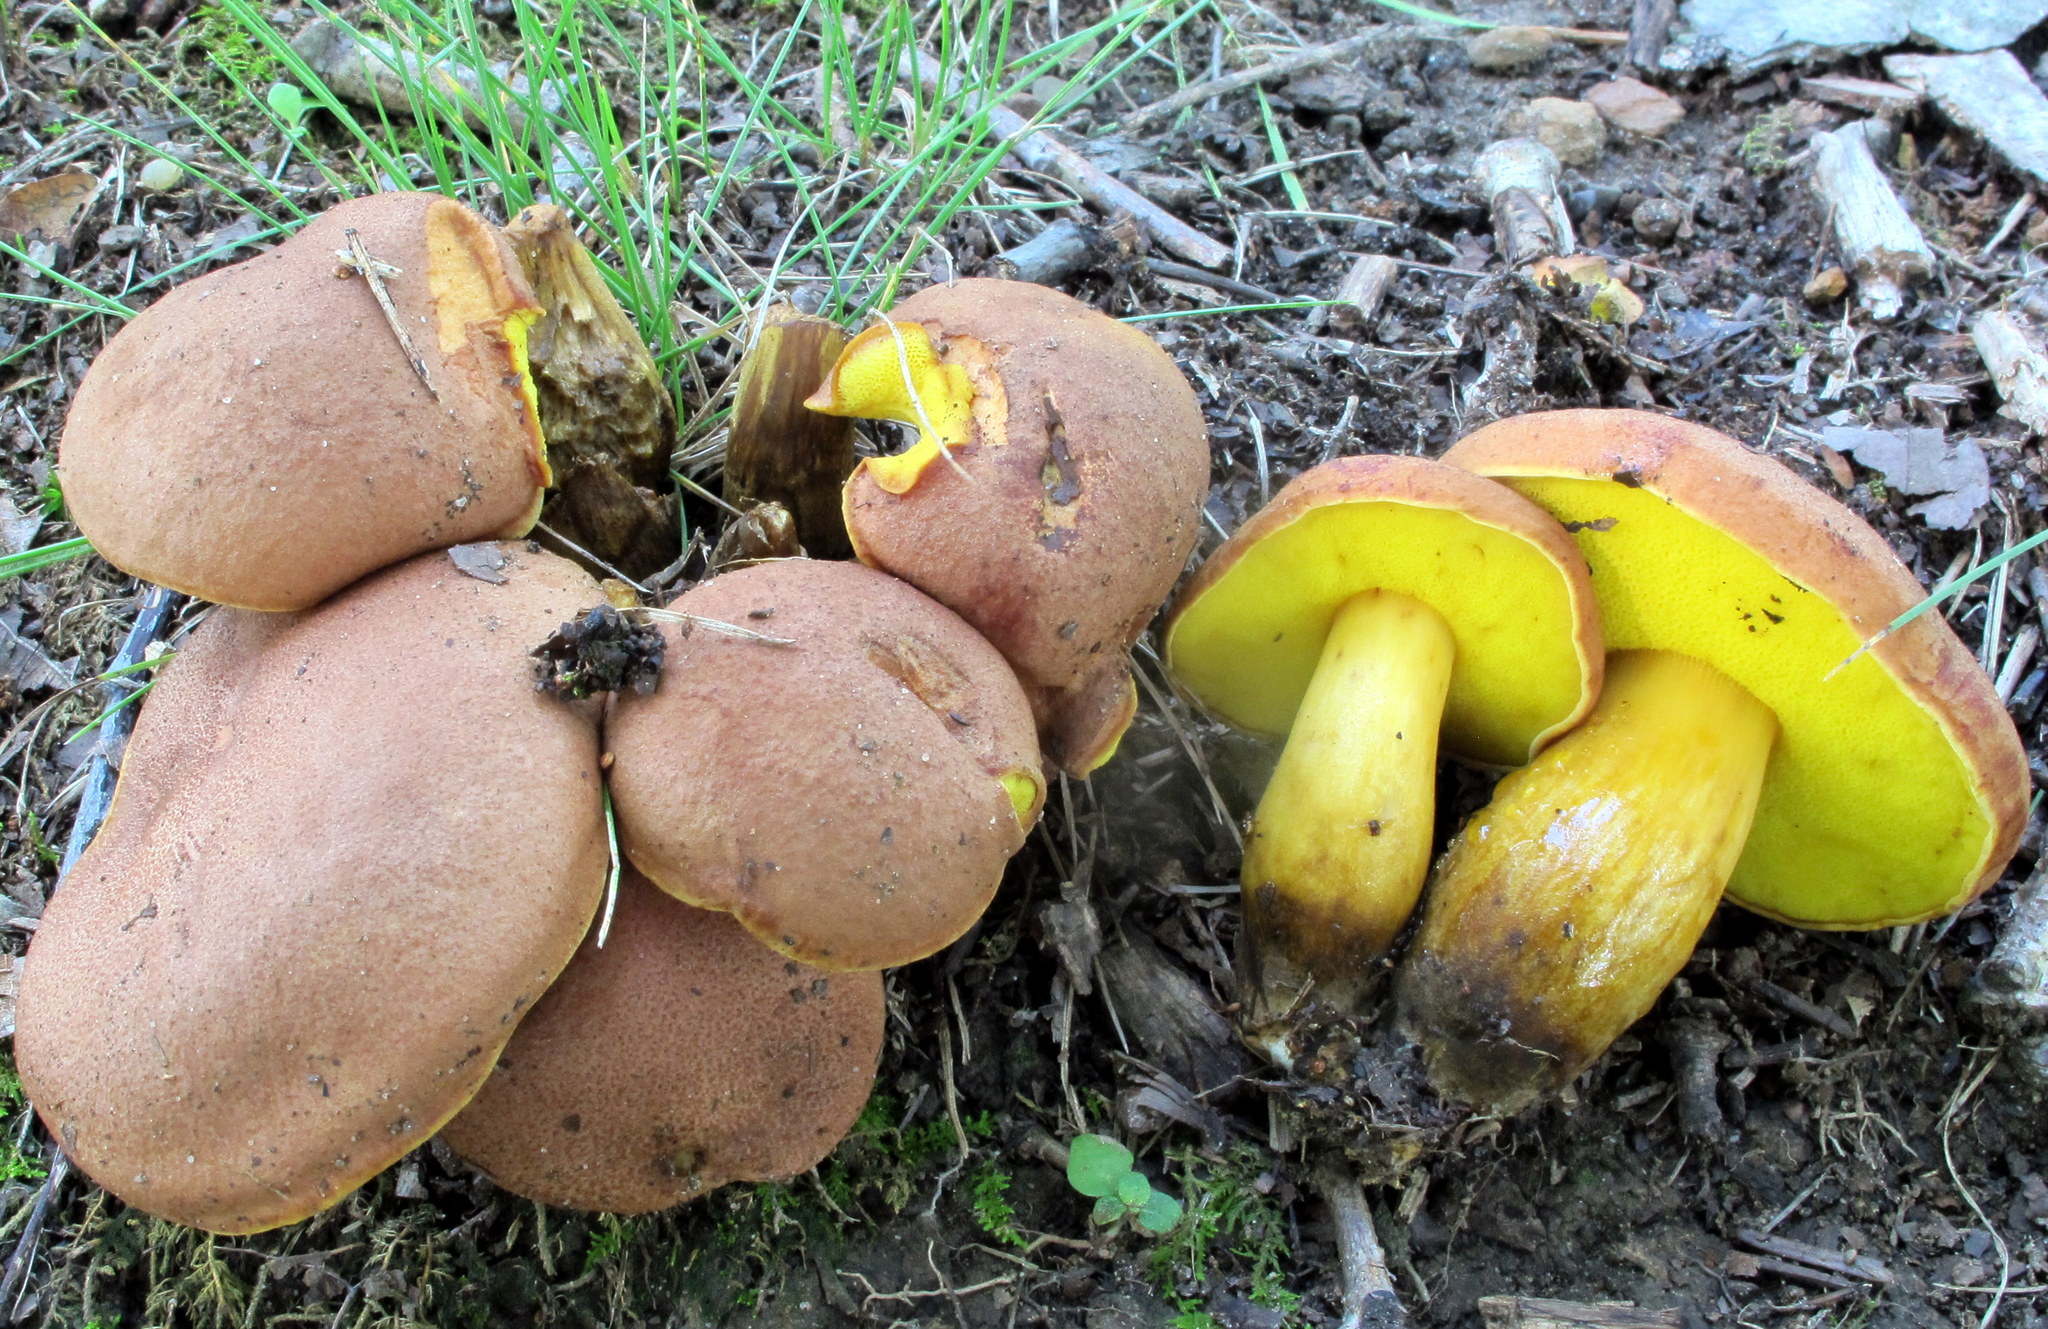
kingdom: Fungi
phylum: Basidiomycota
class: Agaricomycetes
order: Boletales
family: Boletaceae
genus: Aureoboletus
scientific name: Aureoboletus innixus
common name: Clustered brown bolete
